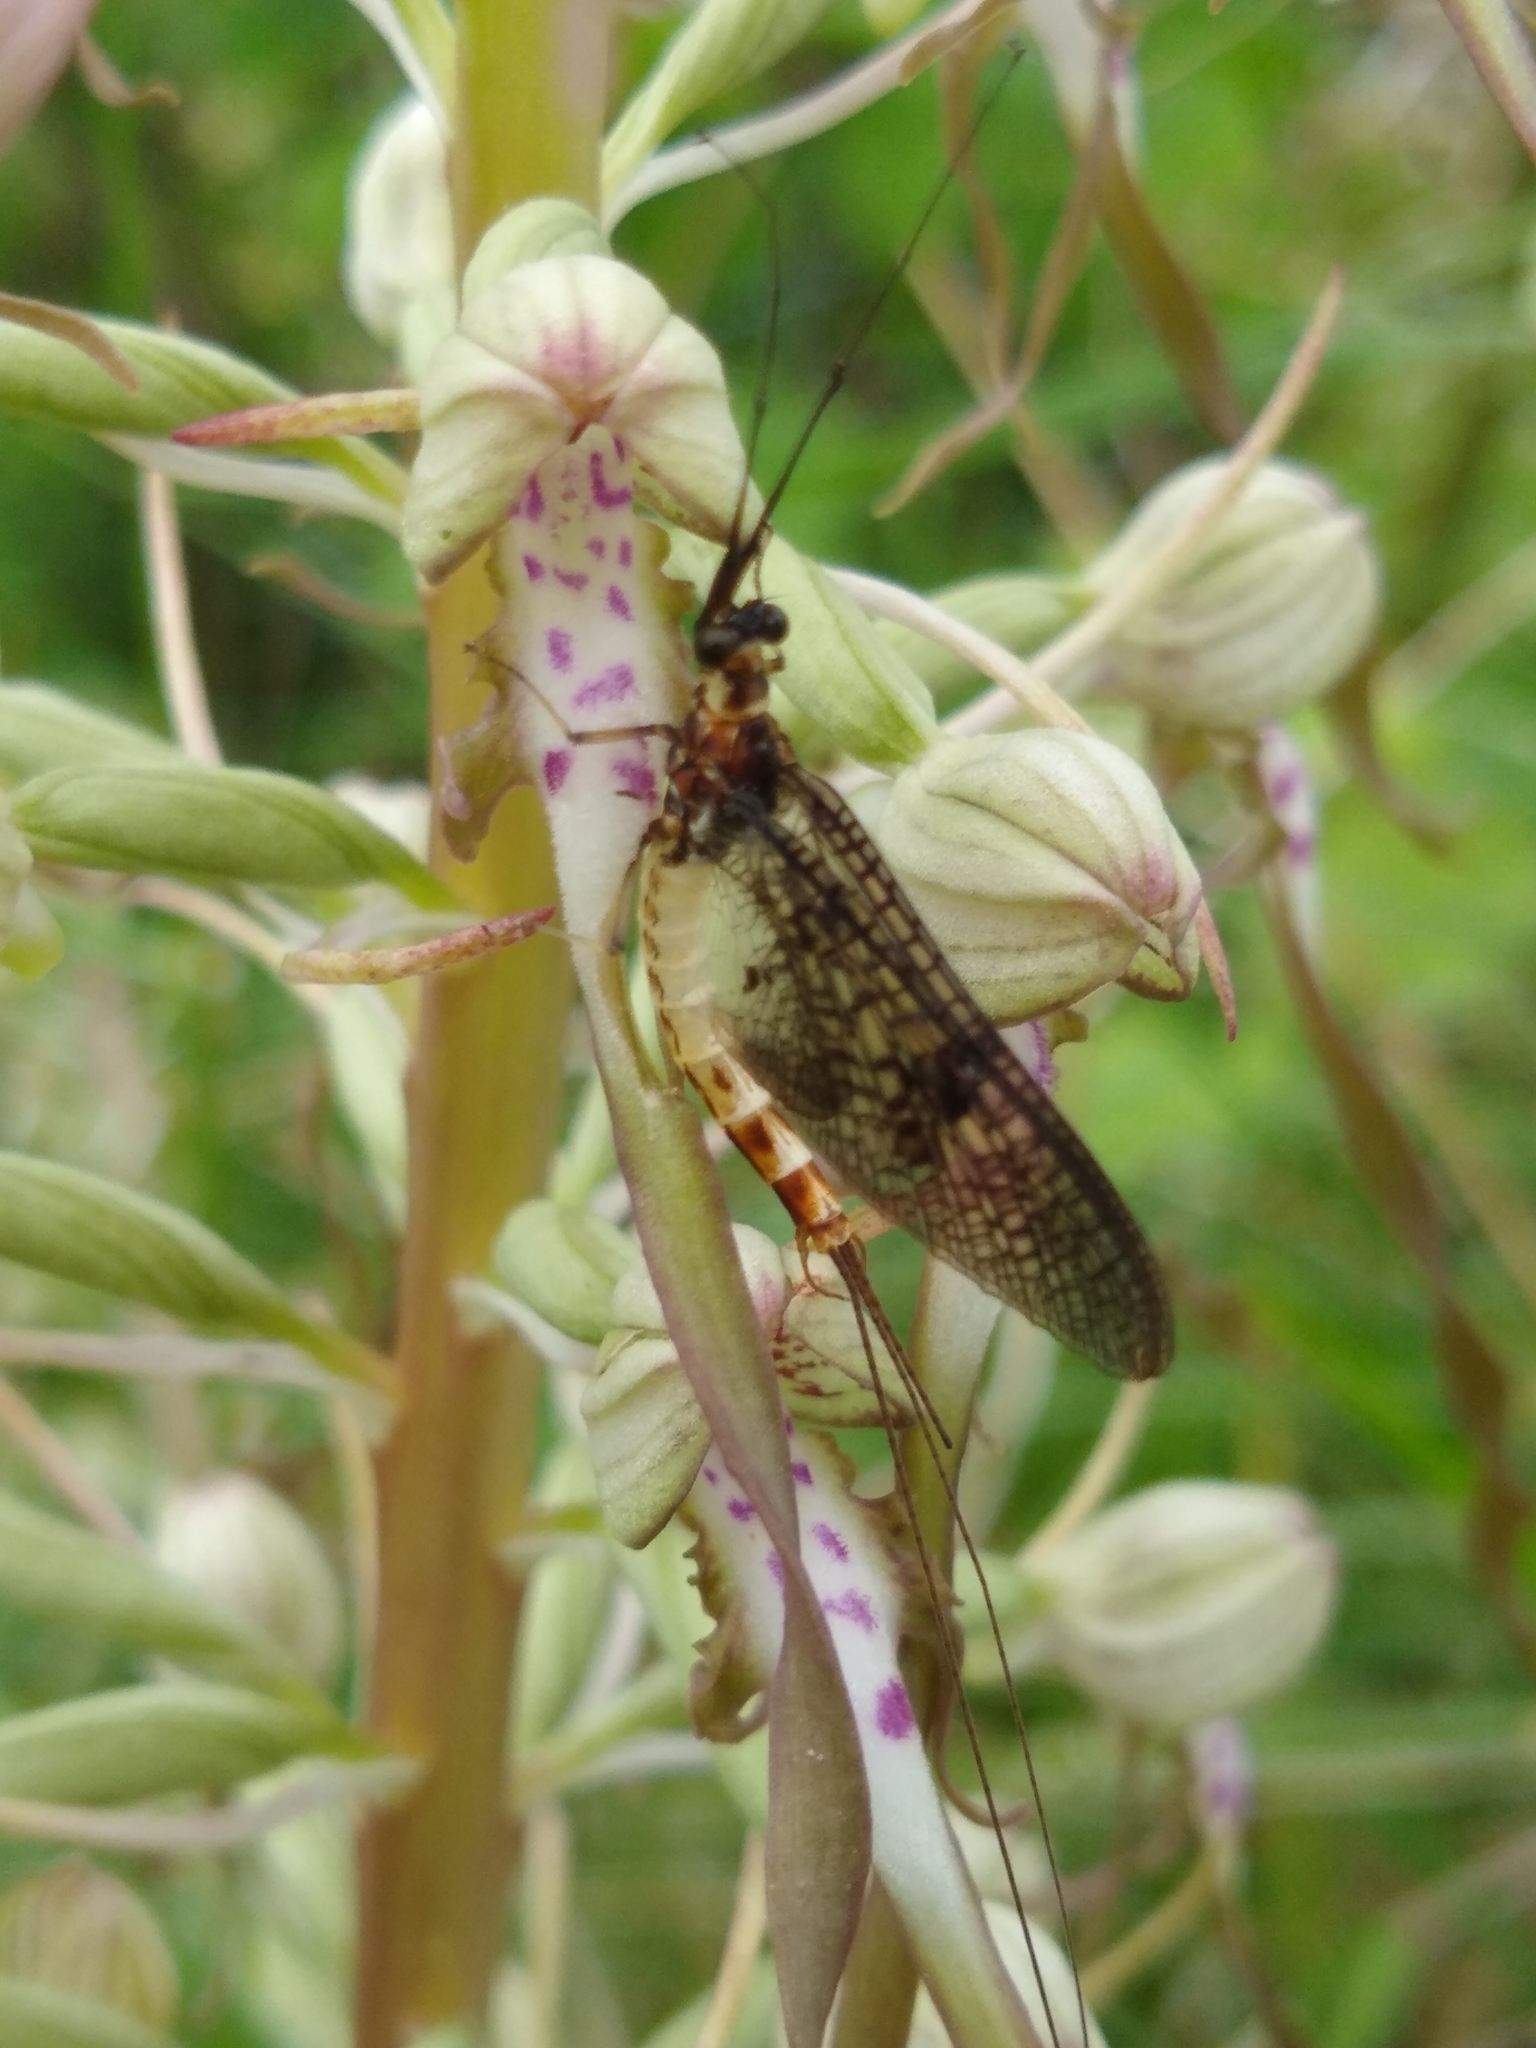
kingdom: Animalia
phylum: Arthropoda
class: Insecta
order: Ephemeroptera
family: Ephemeridae
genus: Ephemera
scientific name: Ephemera danica
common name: Green dun
